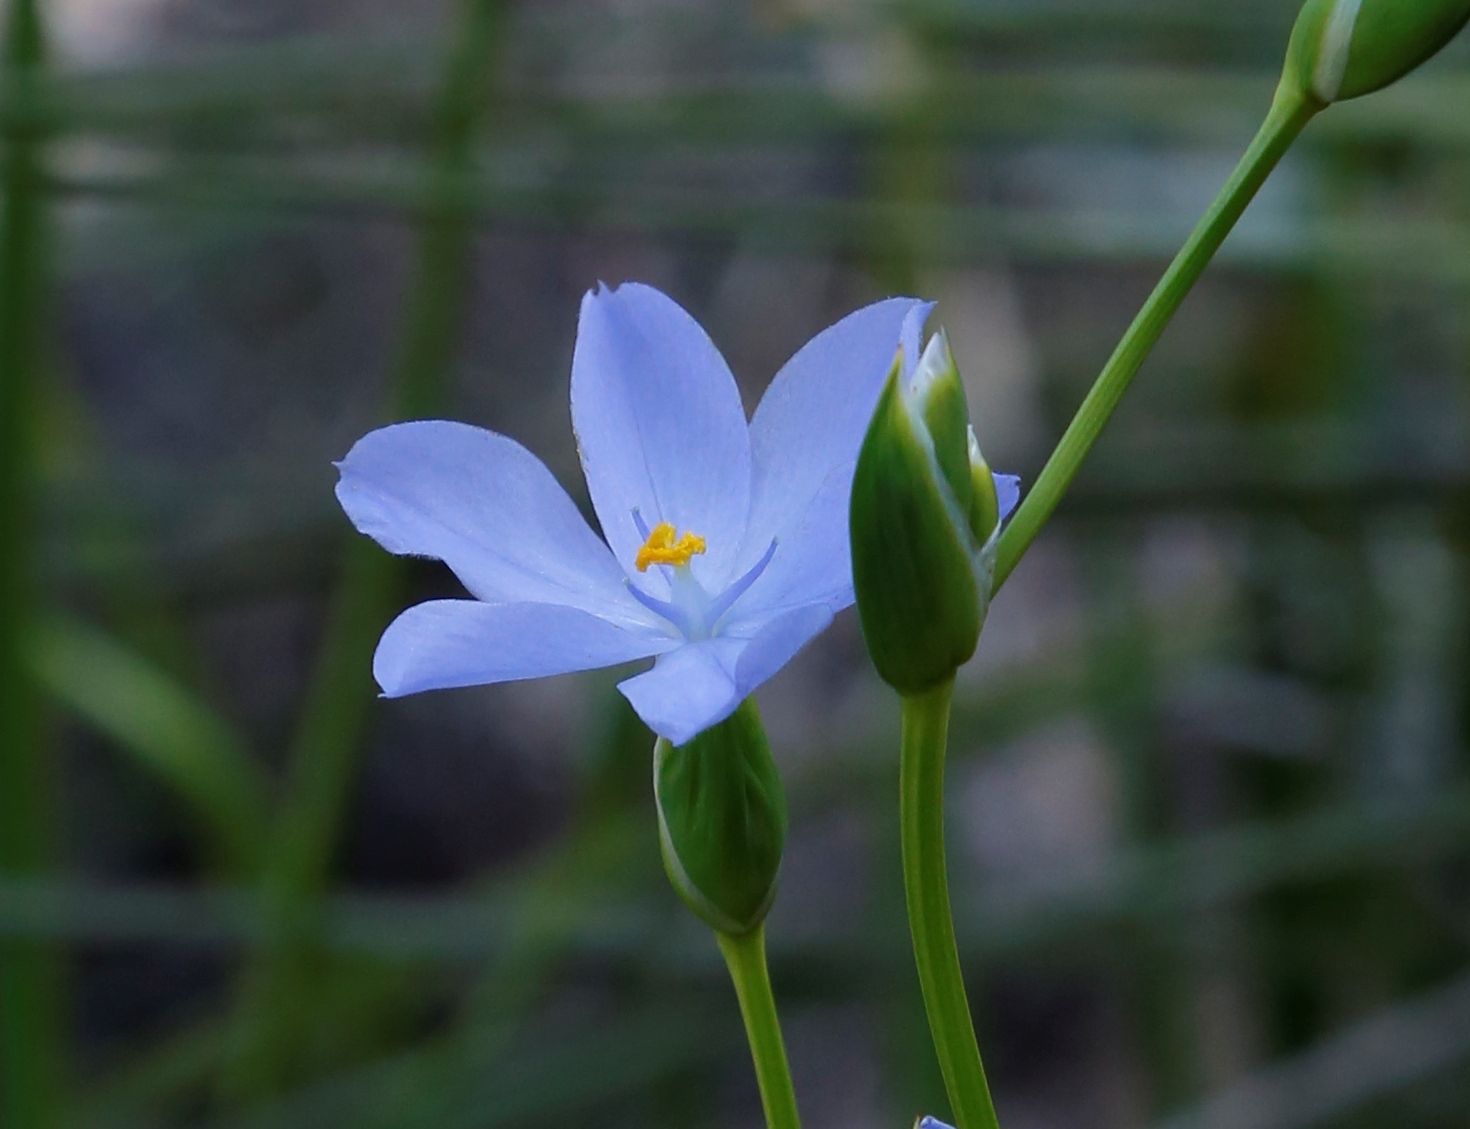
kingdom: Plantae
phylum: Tracheophyta
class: Liliopsida
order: Asparagales
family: Iridaceae
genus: Orthrosanthus
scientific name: Orthrosanthus laxus
